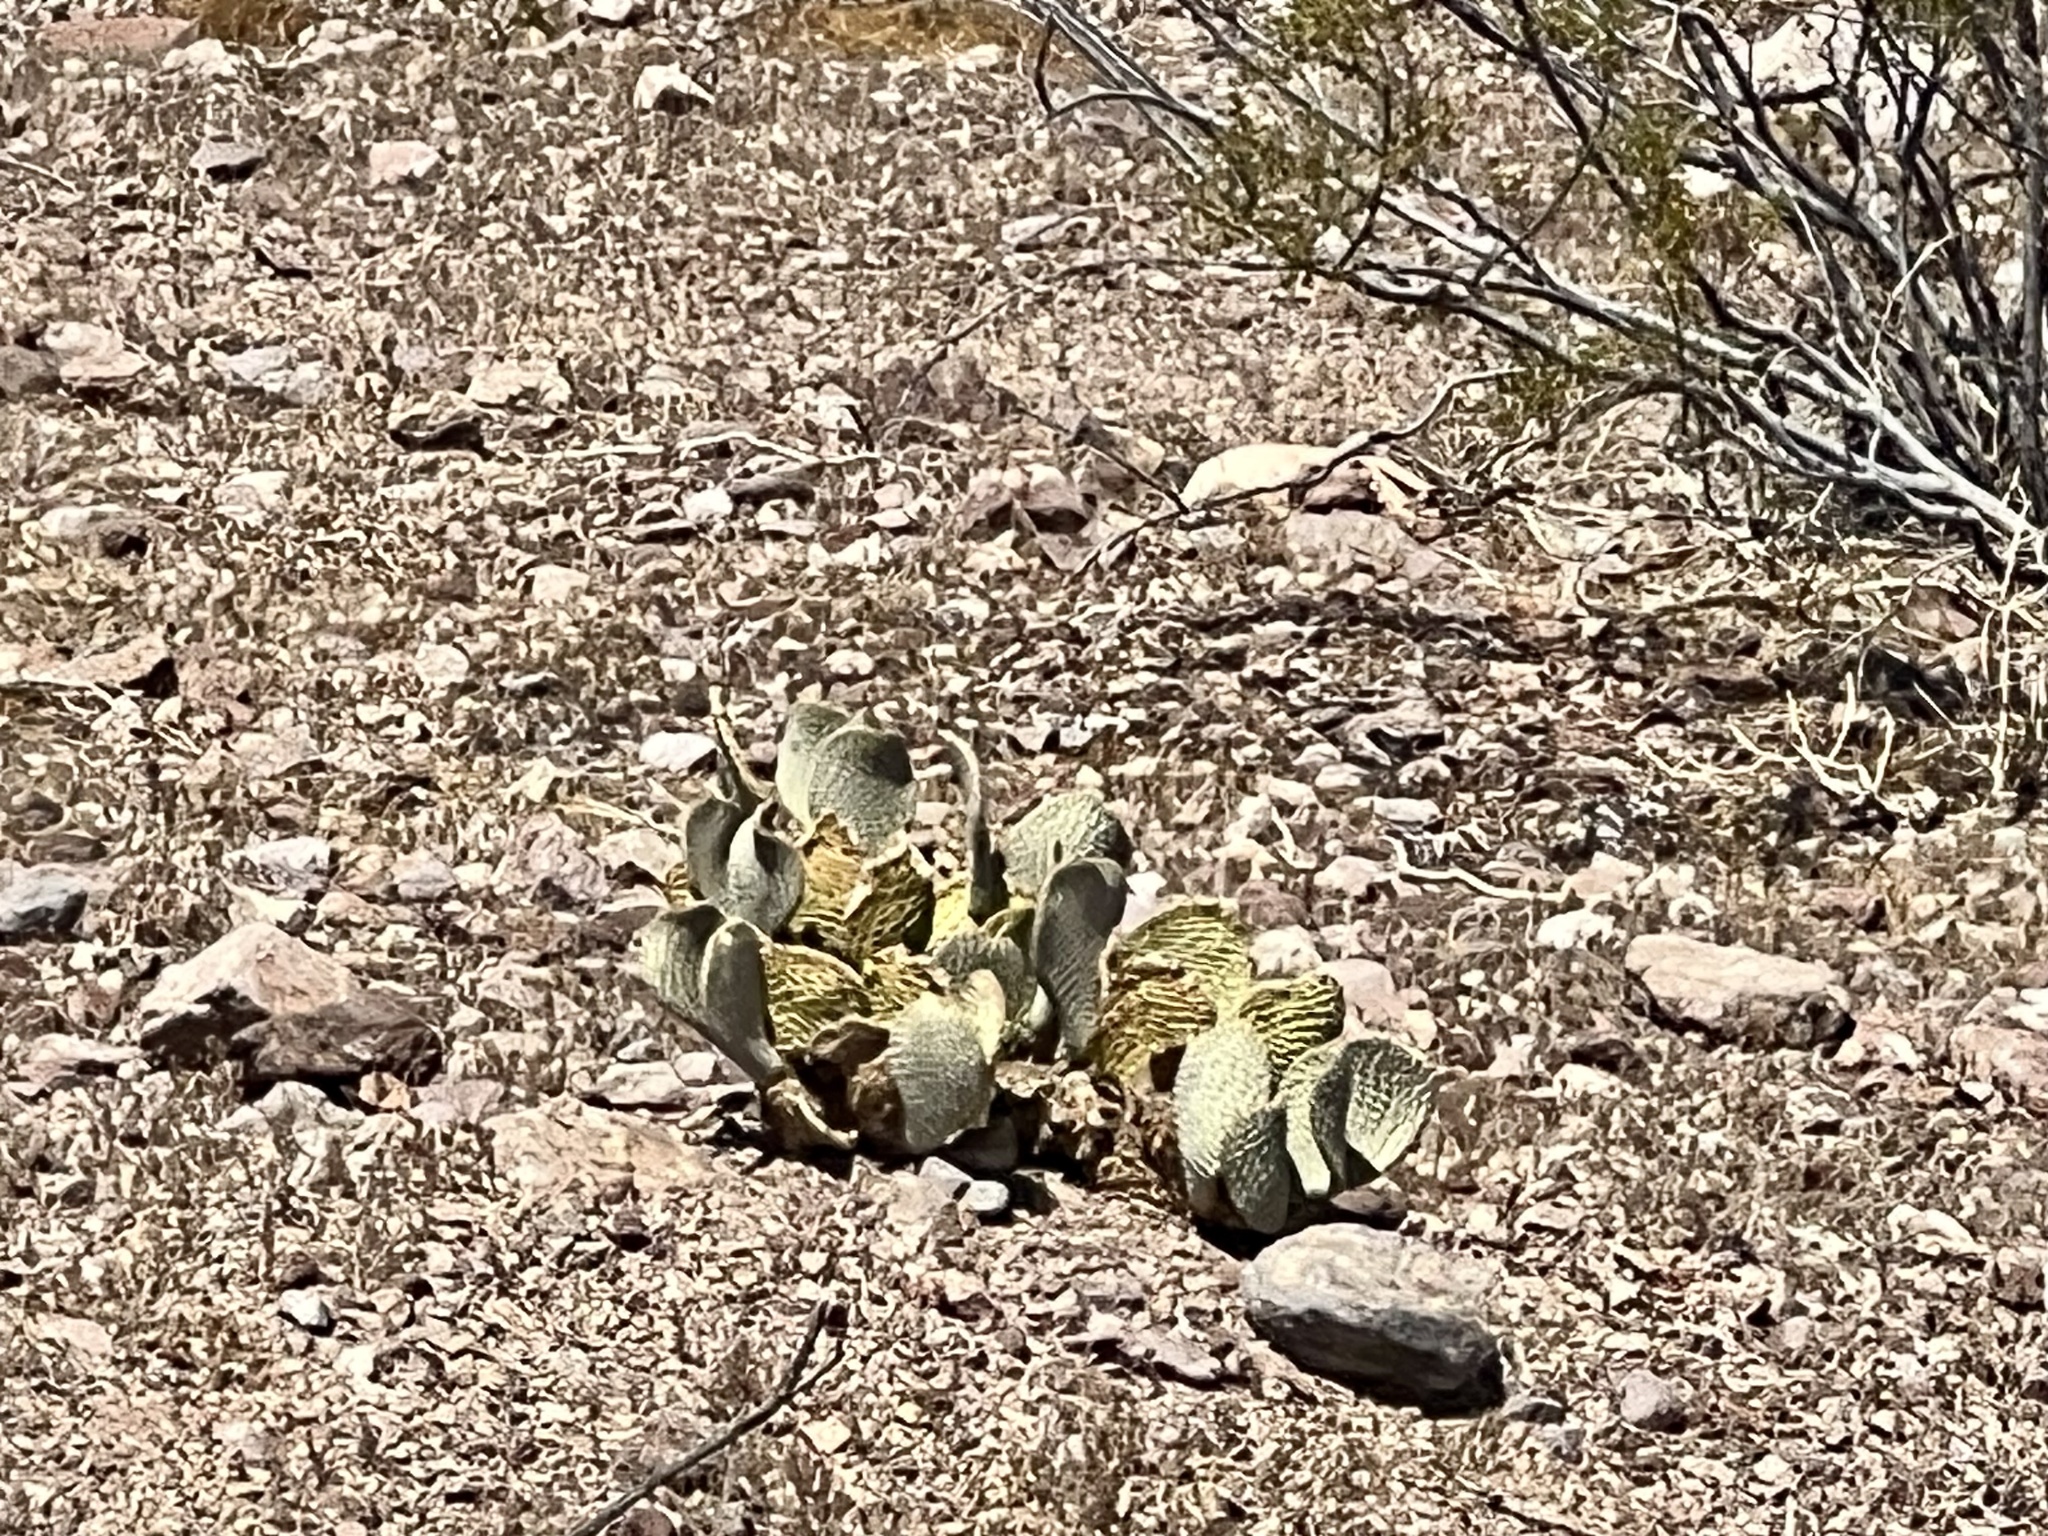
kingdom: Plantae
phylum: Tracheophyta
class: Magnoliopsida
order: Caryophyllales
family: Cactaceae
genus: Opuntia
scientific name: Opuntia basilaris
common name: Beavertail prickly-pear
